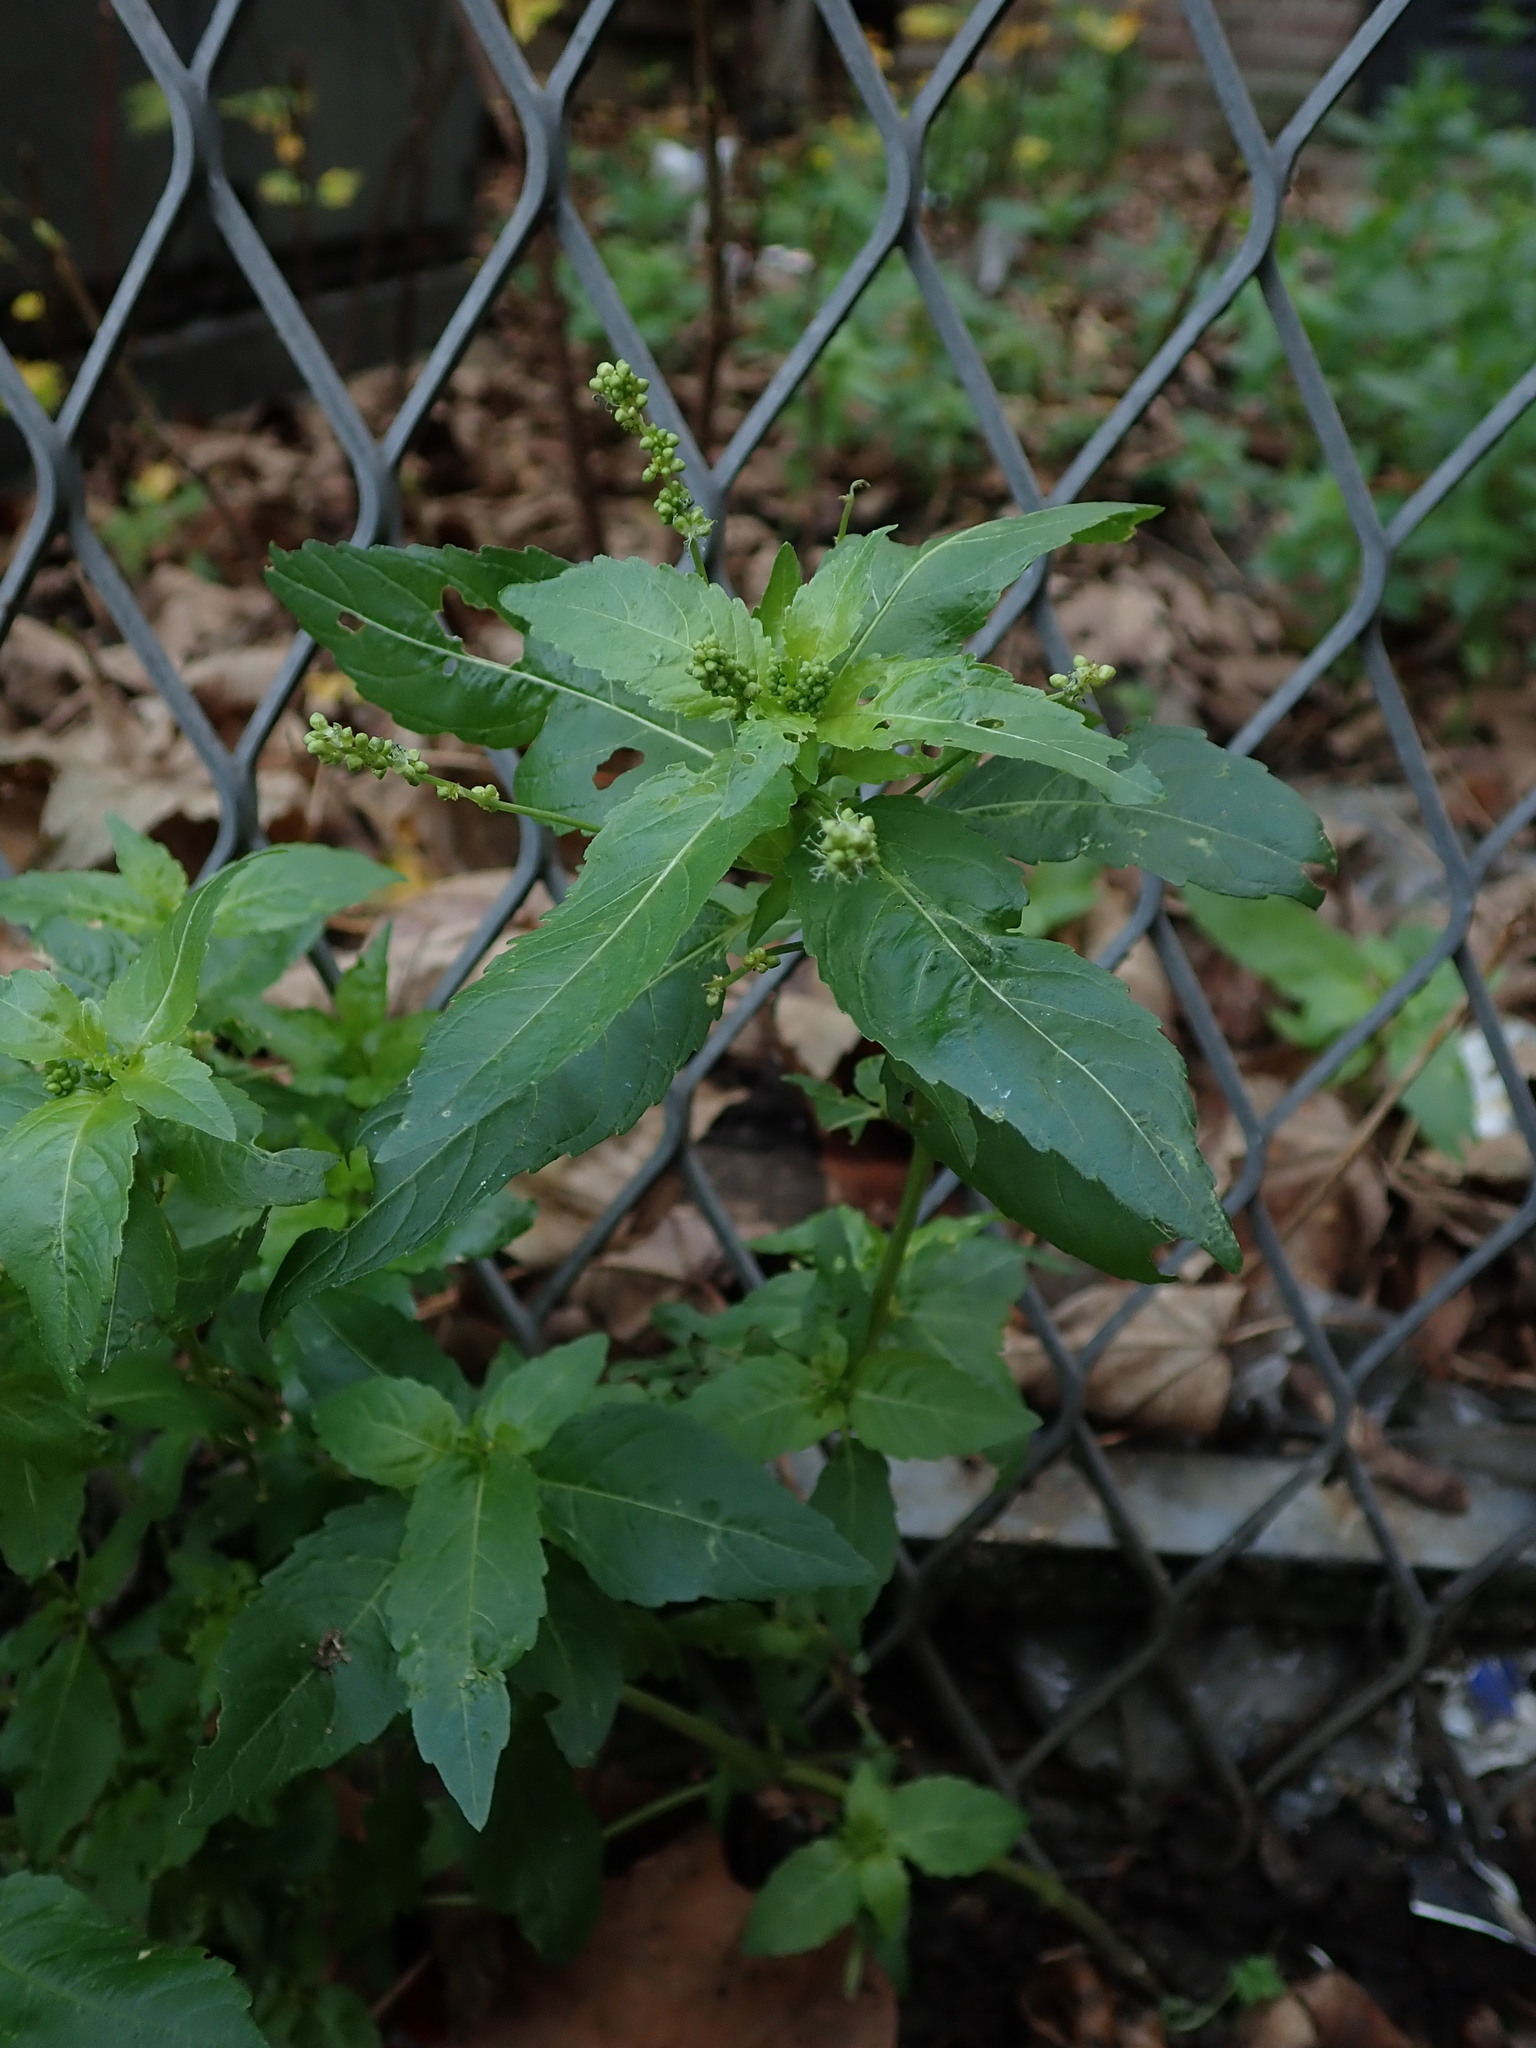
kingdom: Plantae
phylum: Tracheophyta
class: Magnoliopsida
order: Malpighiales
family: Euphorbiaceae
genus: Mercurialis
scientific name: Mercurialis annua
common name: Annual mercury
